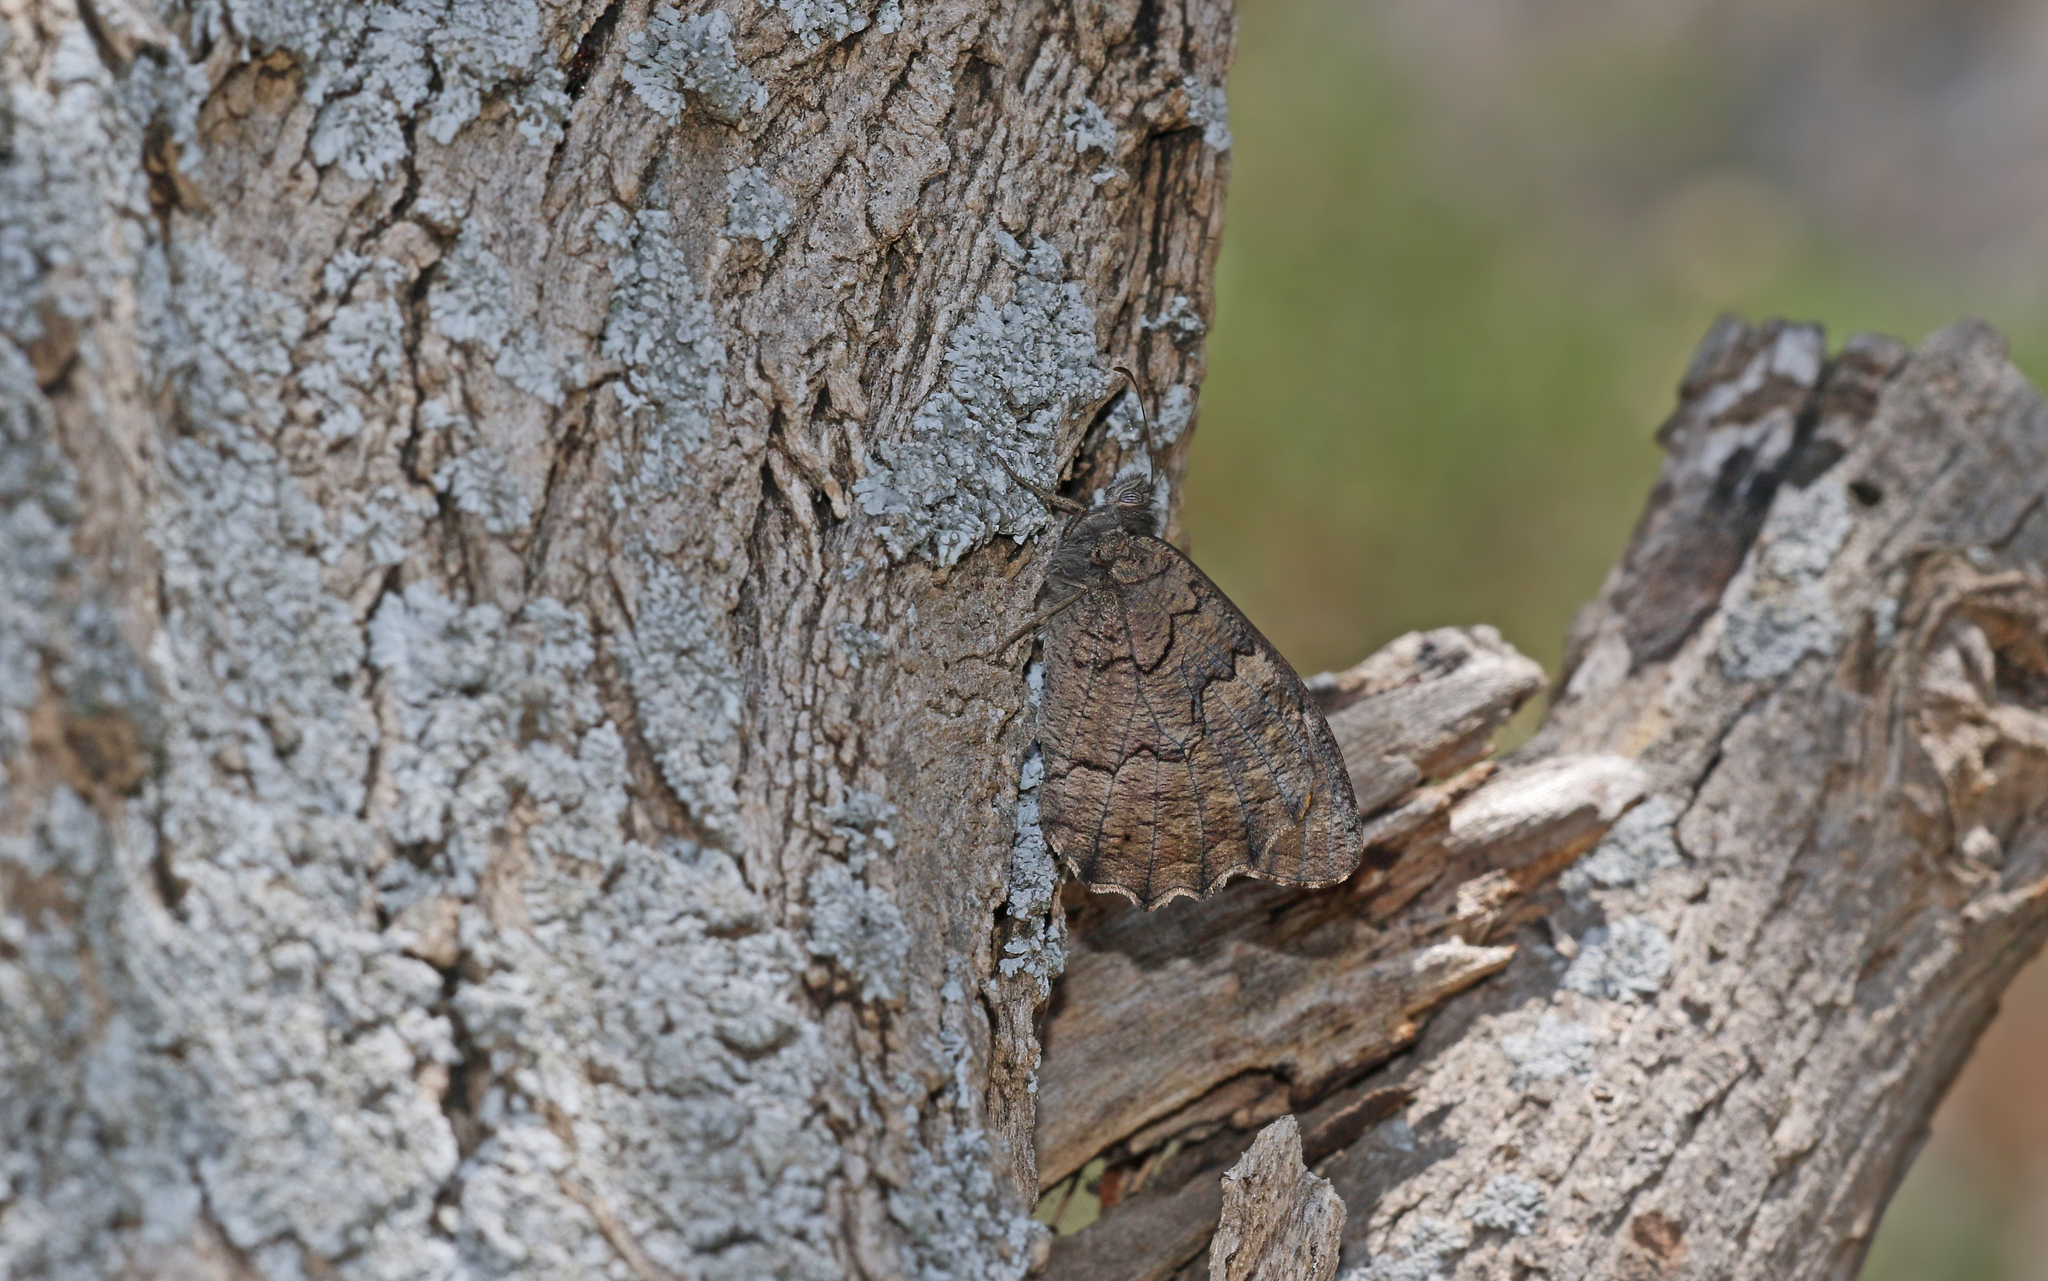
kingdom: Animalia
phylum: Arthropoda
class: Insecta
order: Lepidoptera
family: Nymphalidae
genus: Hipparchia
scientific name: Hipparchia fatua
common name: Freyer's grayling
